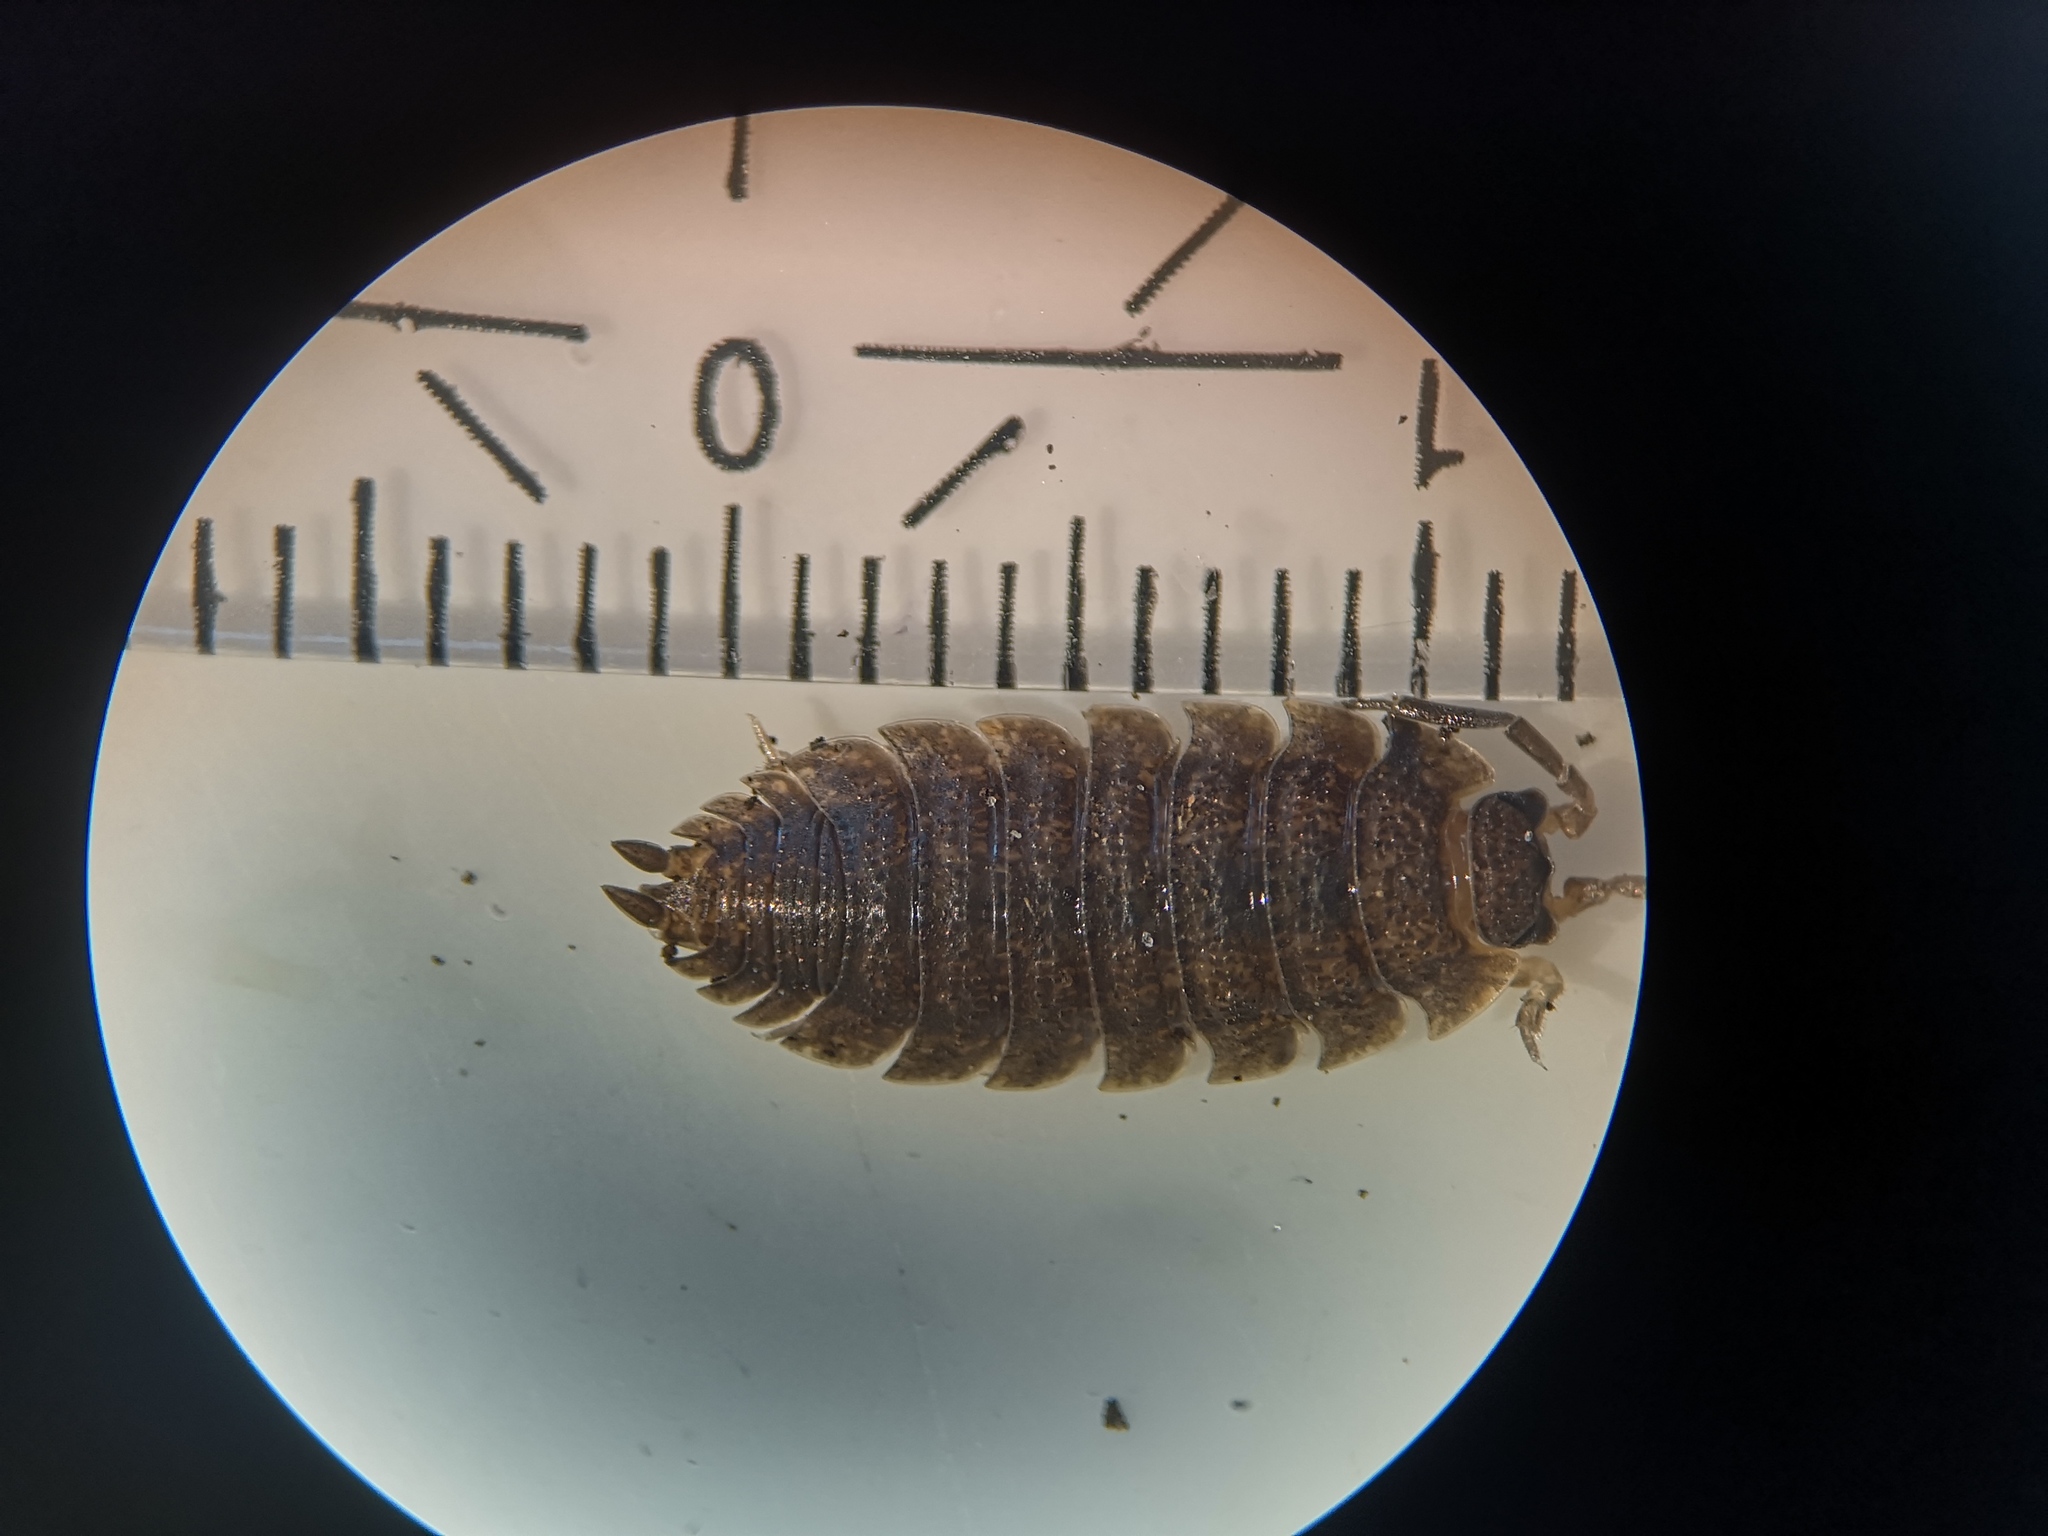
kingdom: Animalia
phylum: Arthropoda
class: Malacostraca
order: Isopoda
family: Porcellionidae
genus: Porcellio
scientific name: Porcellio scaber
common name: Common rough woodlouse
